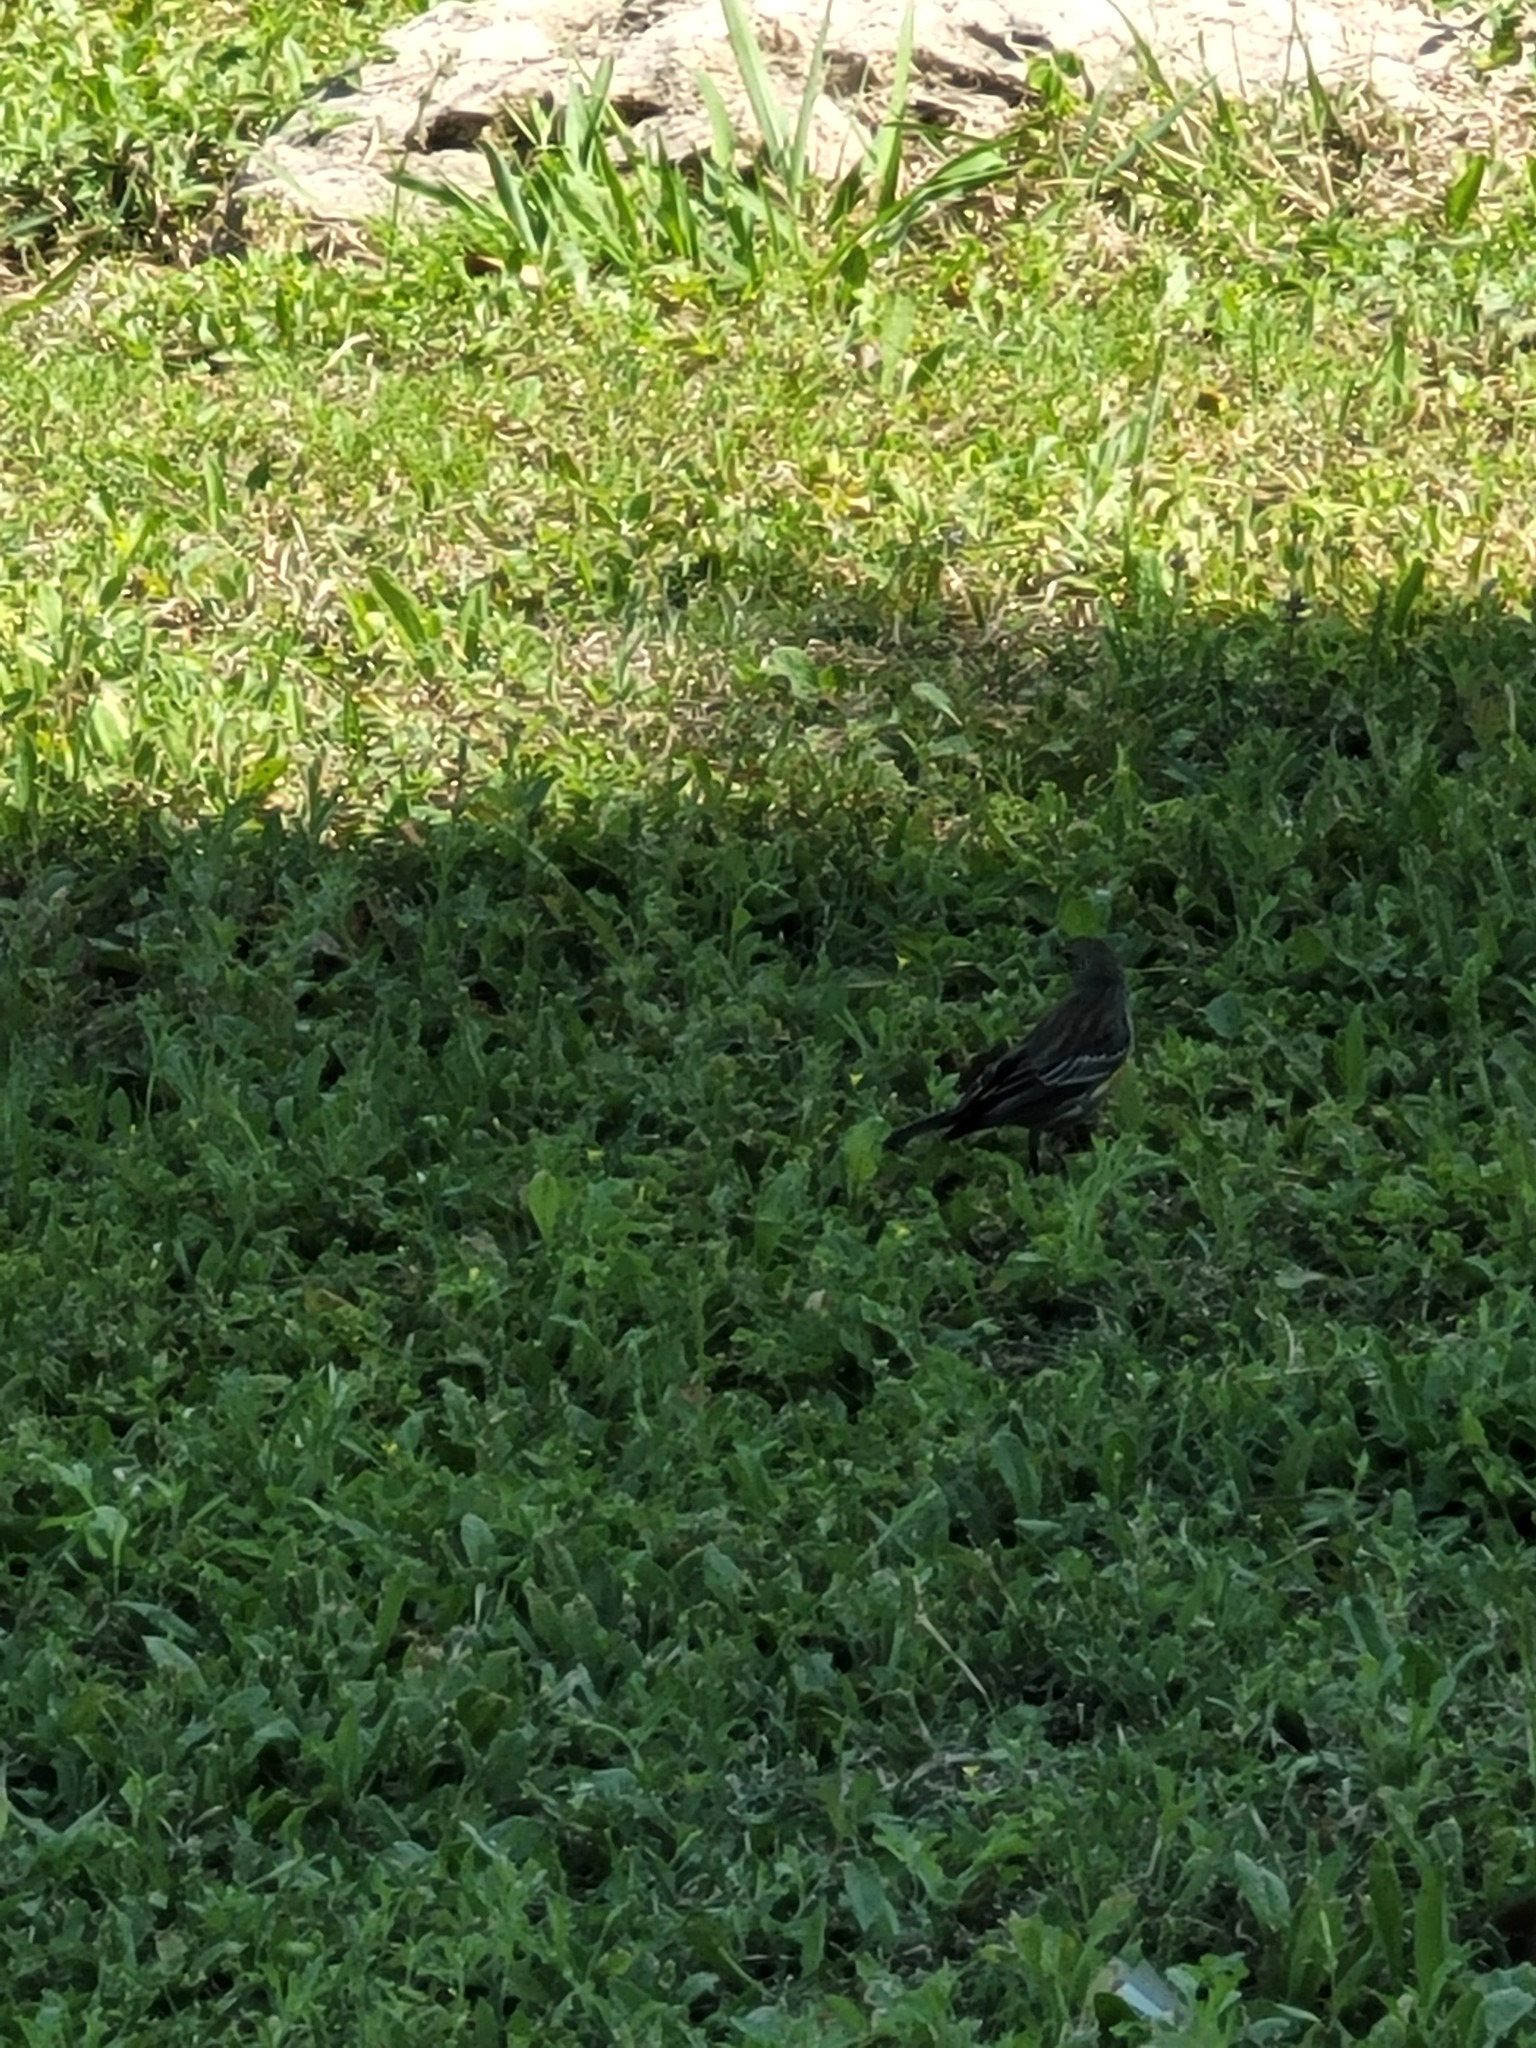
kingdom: Animalia
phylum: Chordata
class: Aves
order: Passeriformes
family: Parulidae
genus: Setophaga
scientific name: Setophaga coronata
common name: Myrtle warbler
